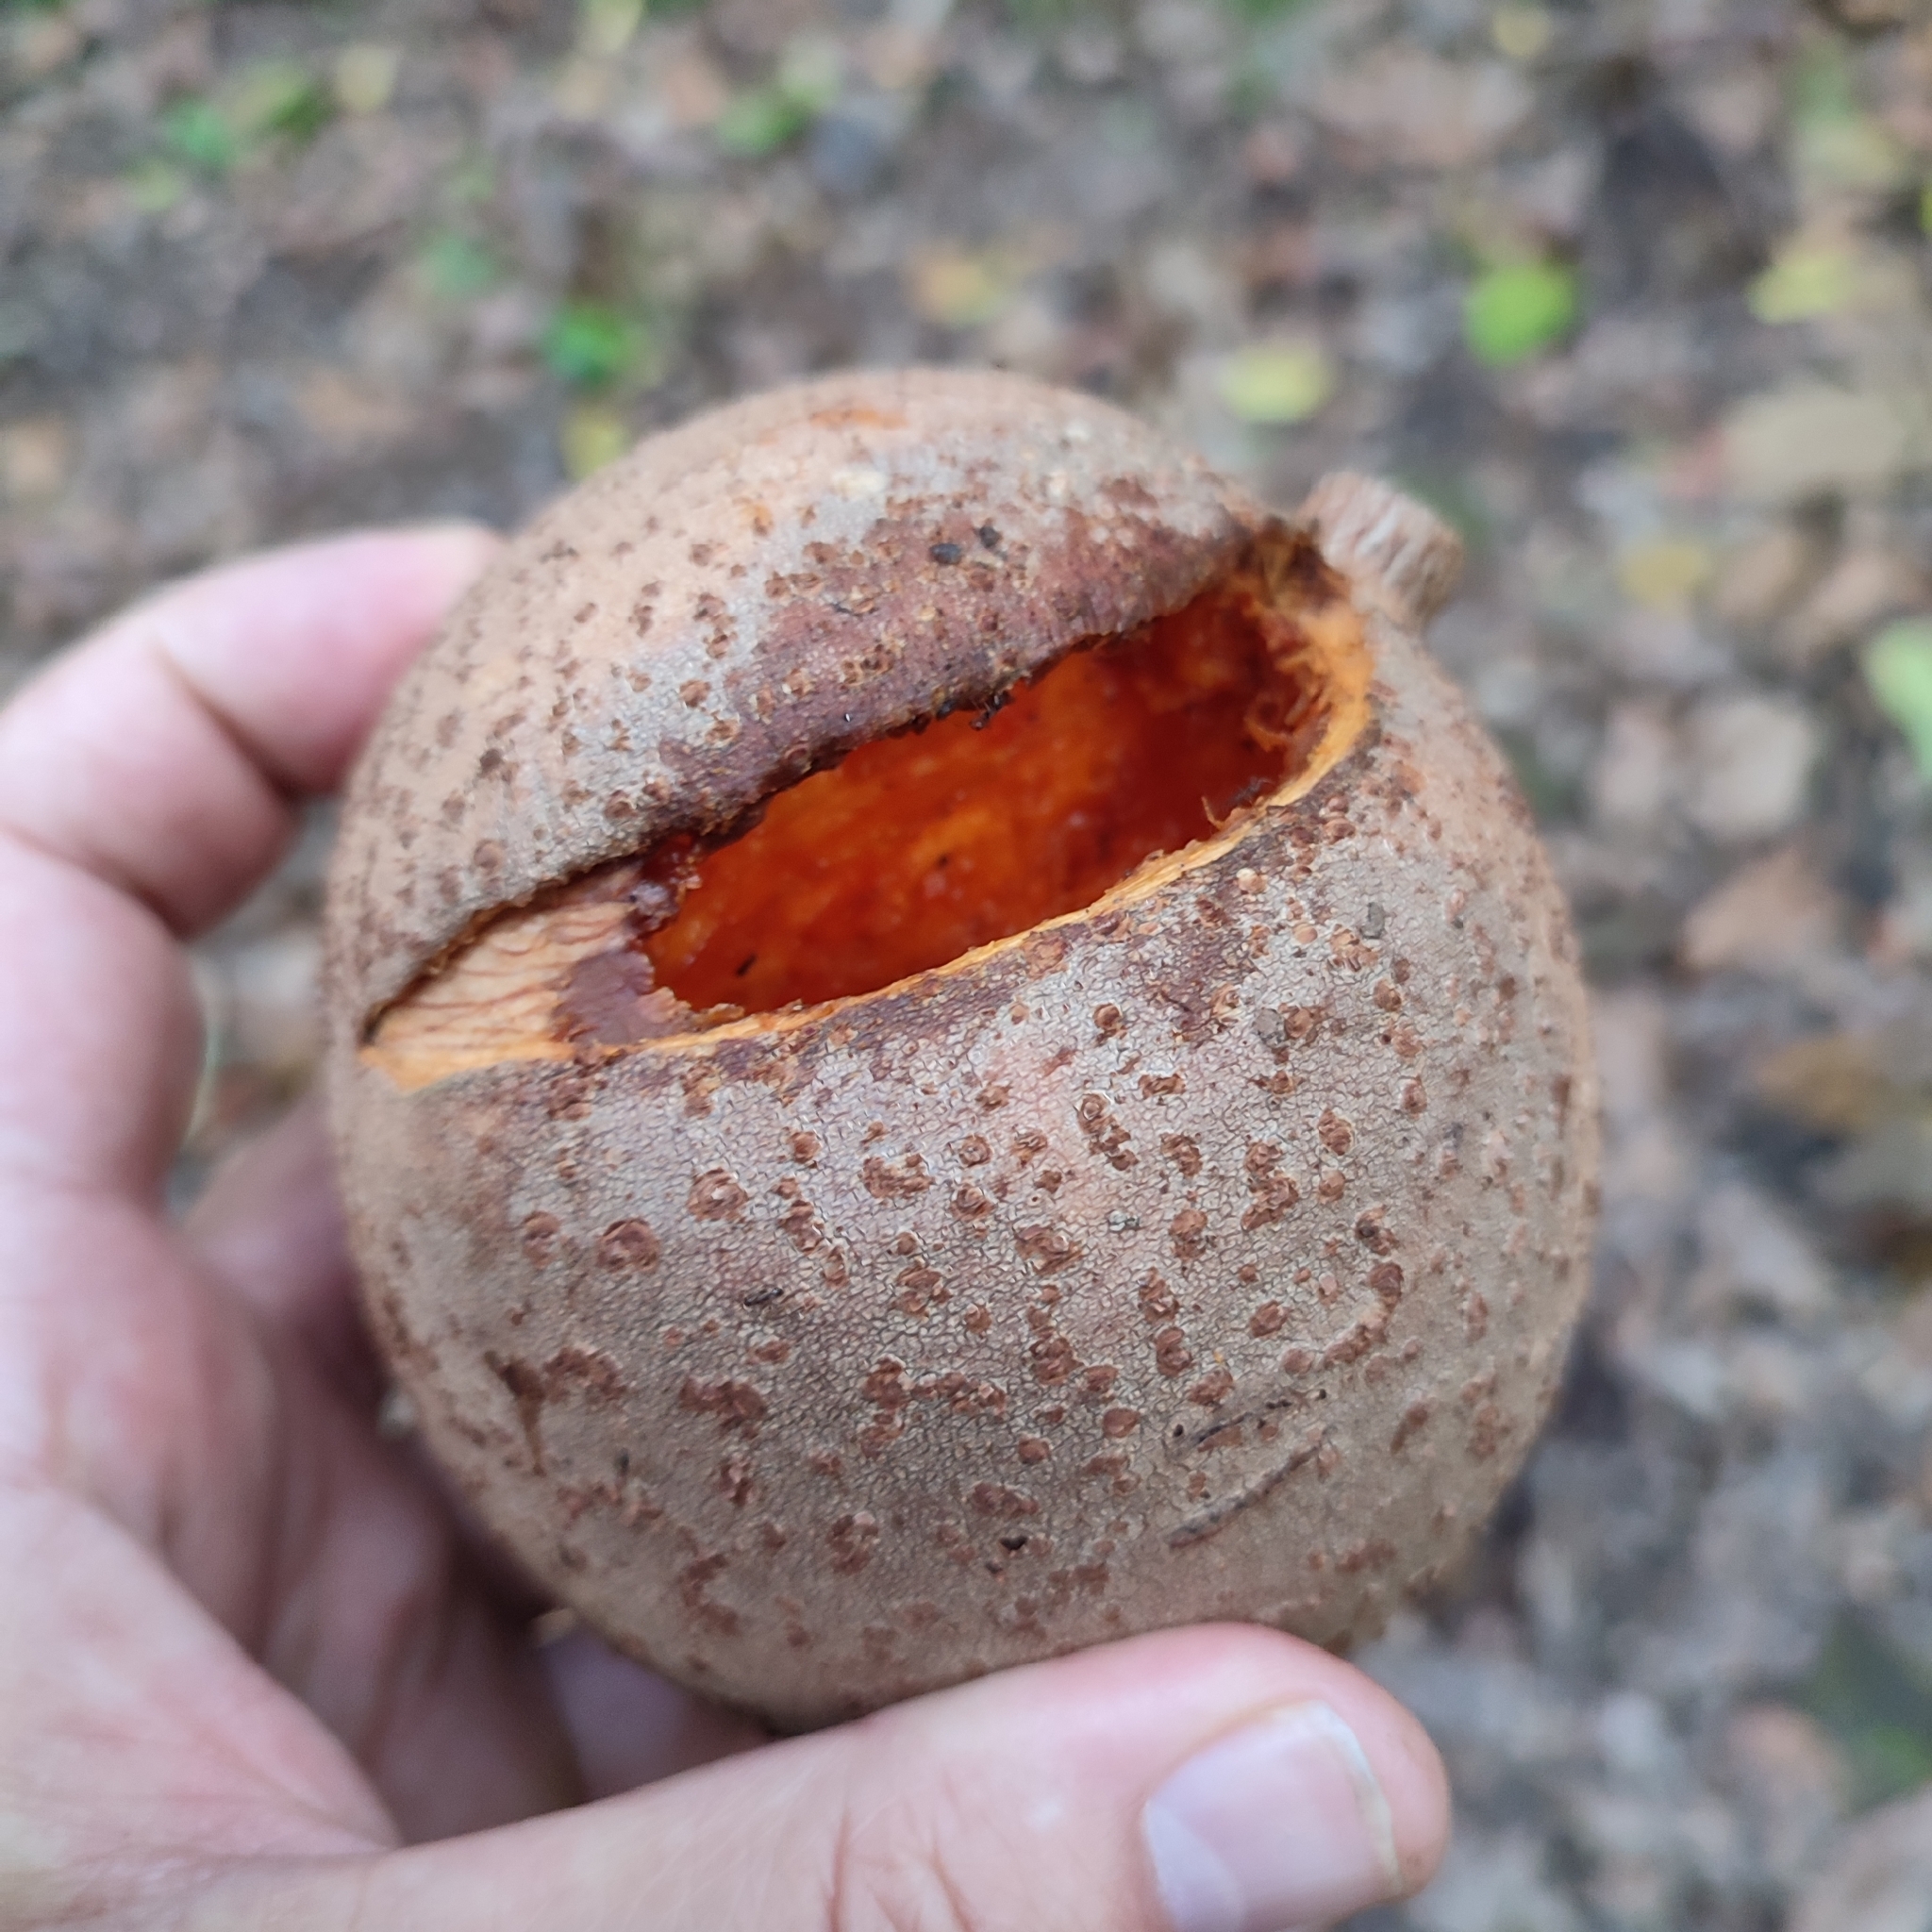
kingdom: Plantae
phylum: Tracheophyta
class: Magnoliopsida
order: Malpighiales
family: Calophyllaceae
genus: Mammea
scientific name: Mammea americana
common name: Mamey
